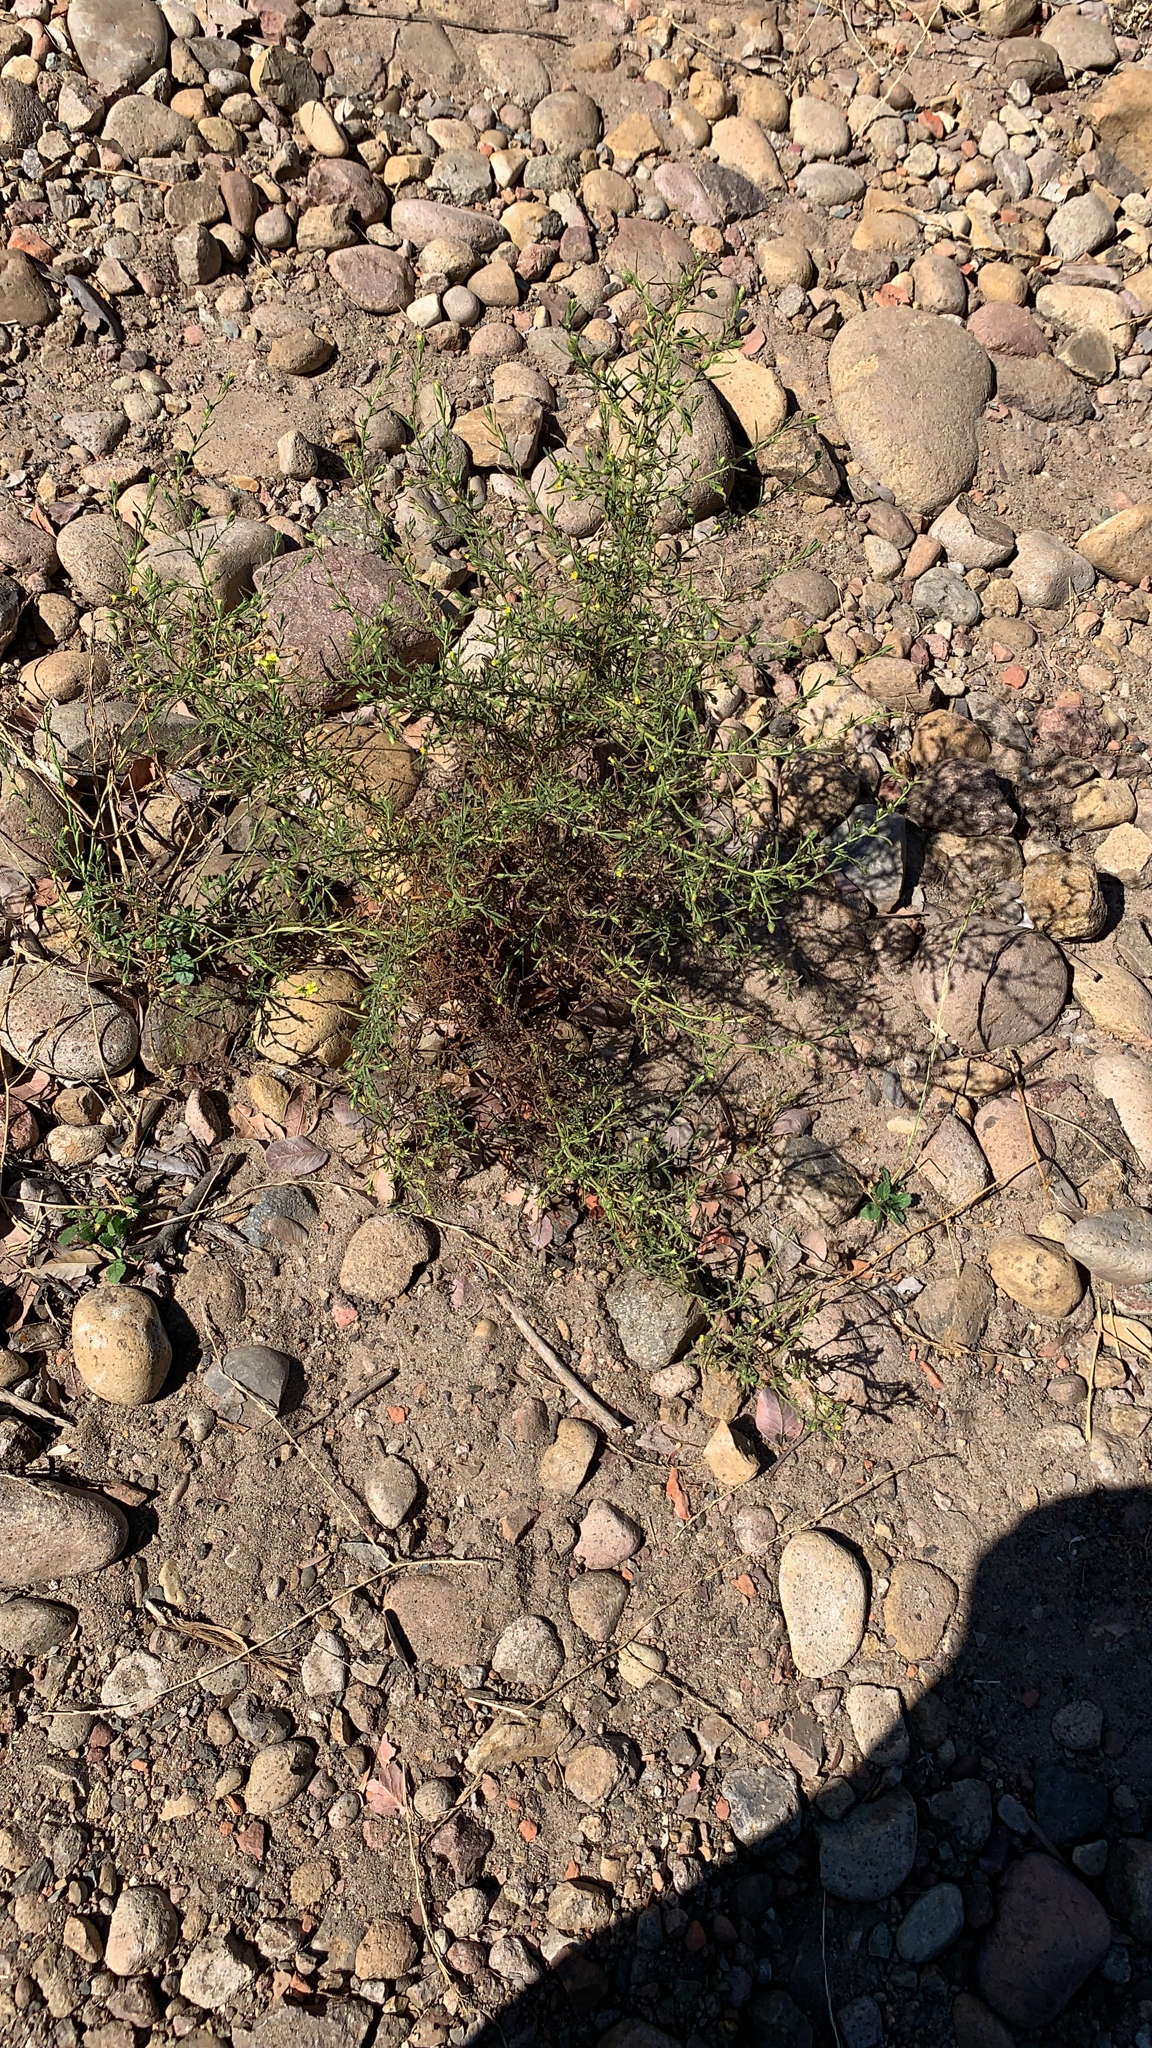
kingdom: Plantae
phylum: Tracheophyta
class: Magnoliopsida
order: Asterales
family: Asteraceae
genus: Dittrichia
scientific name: Dittrichia graveolens
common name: Stinking fleabane
